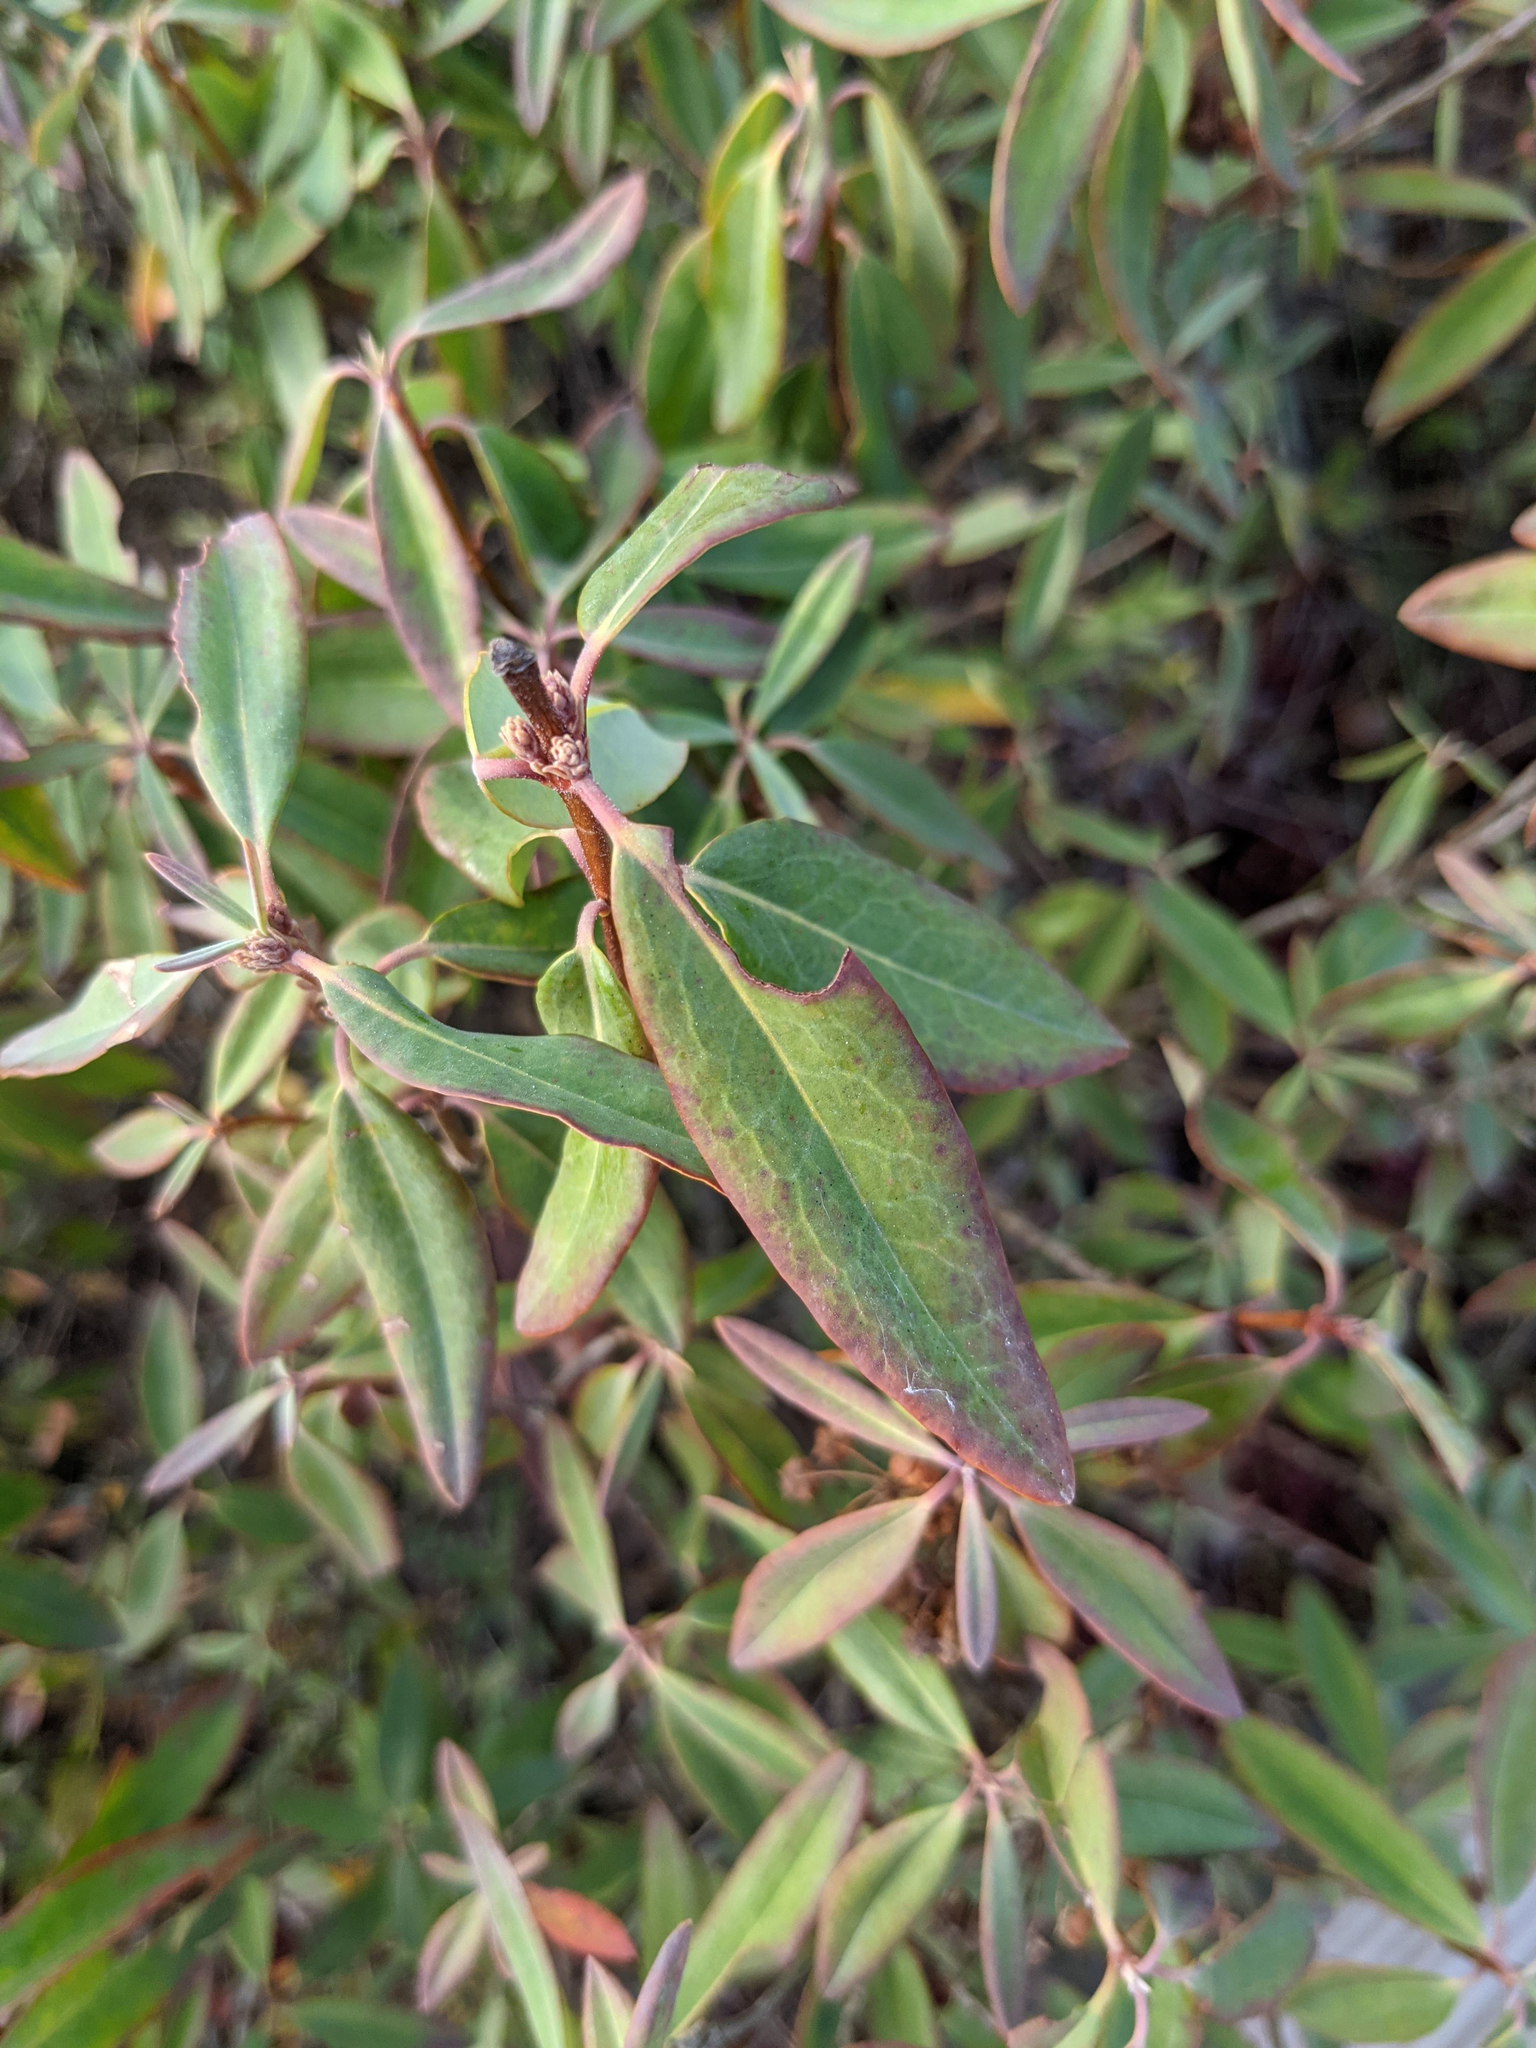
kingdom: Plantae
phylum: Tracheophyta
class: Magnoliopsida
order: Ericales
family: Ericaceae
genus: Kalmia
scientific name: Kalmia angustifolia
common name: Sheep-laurel
